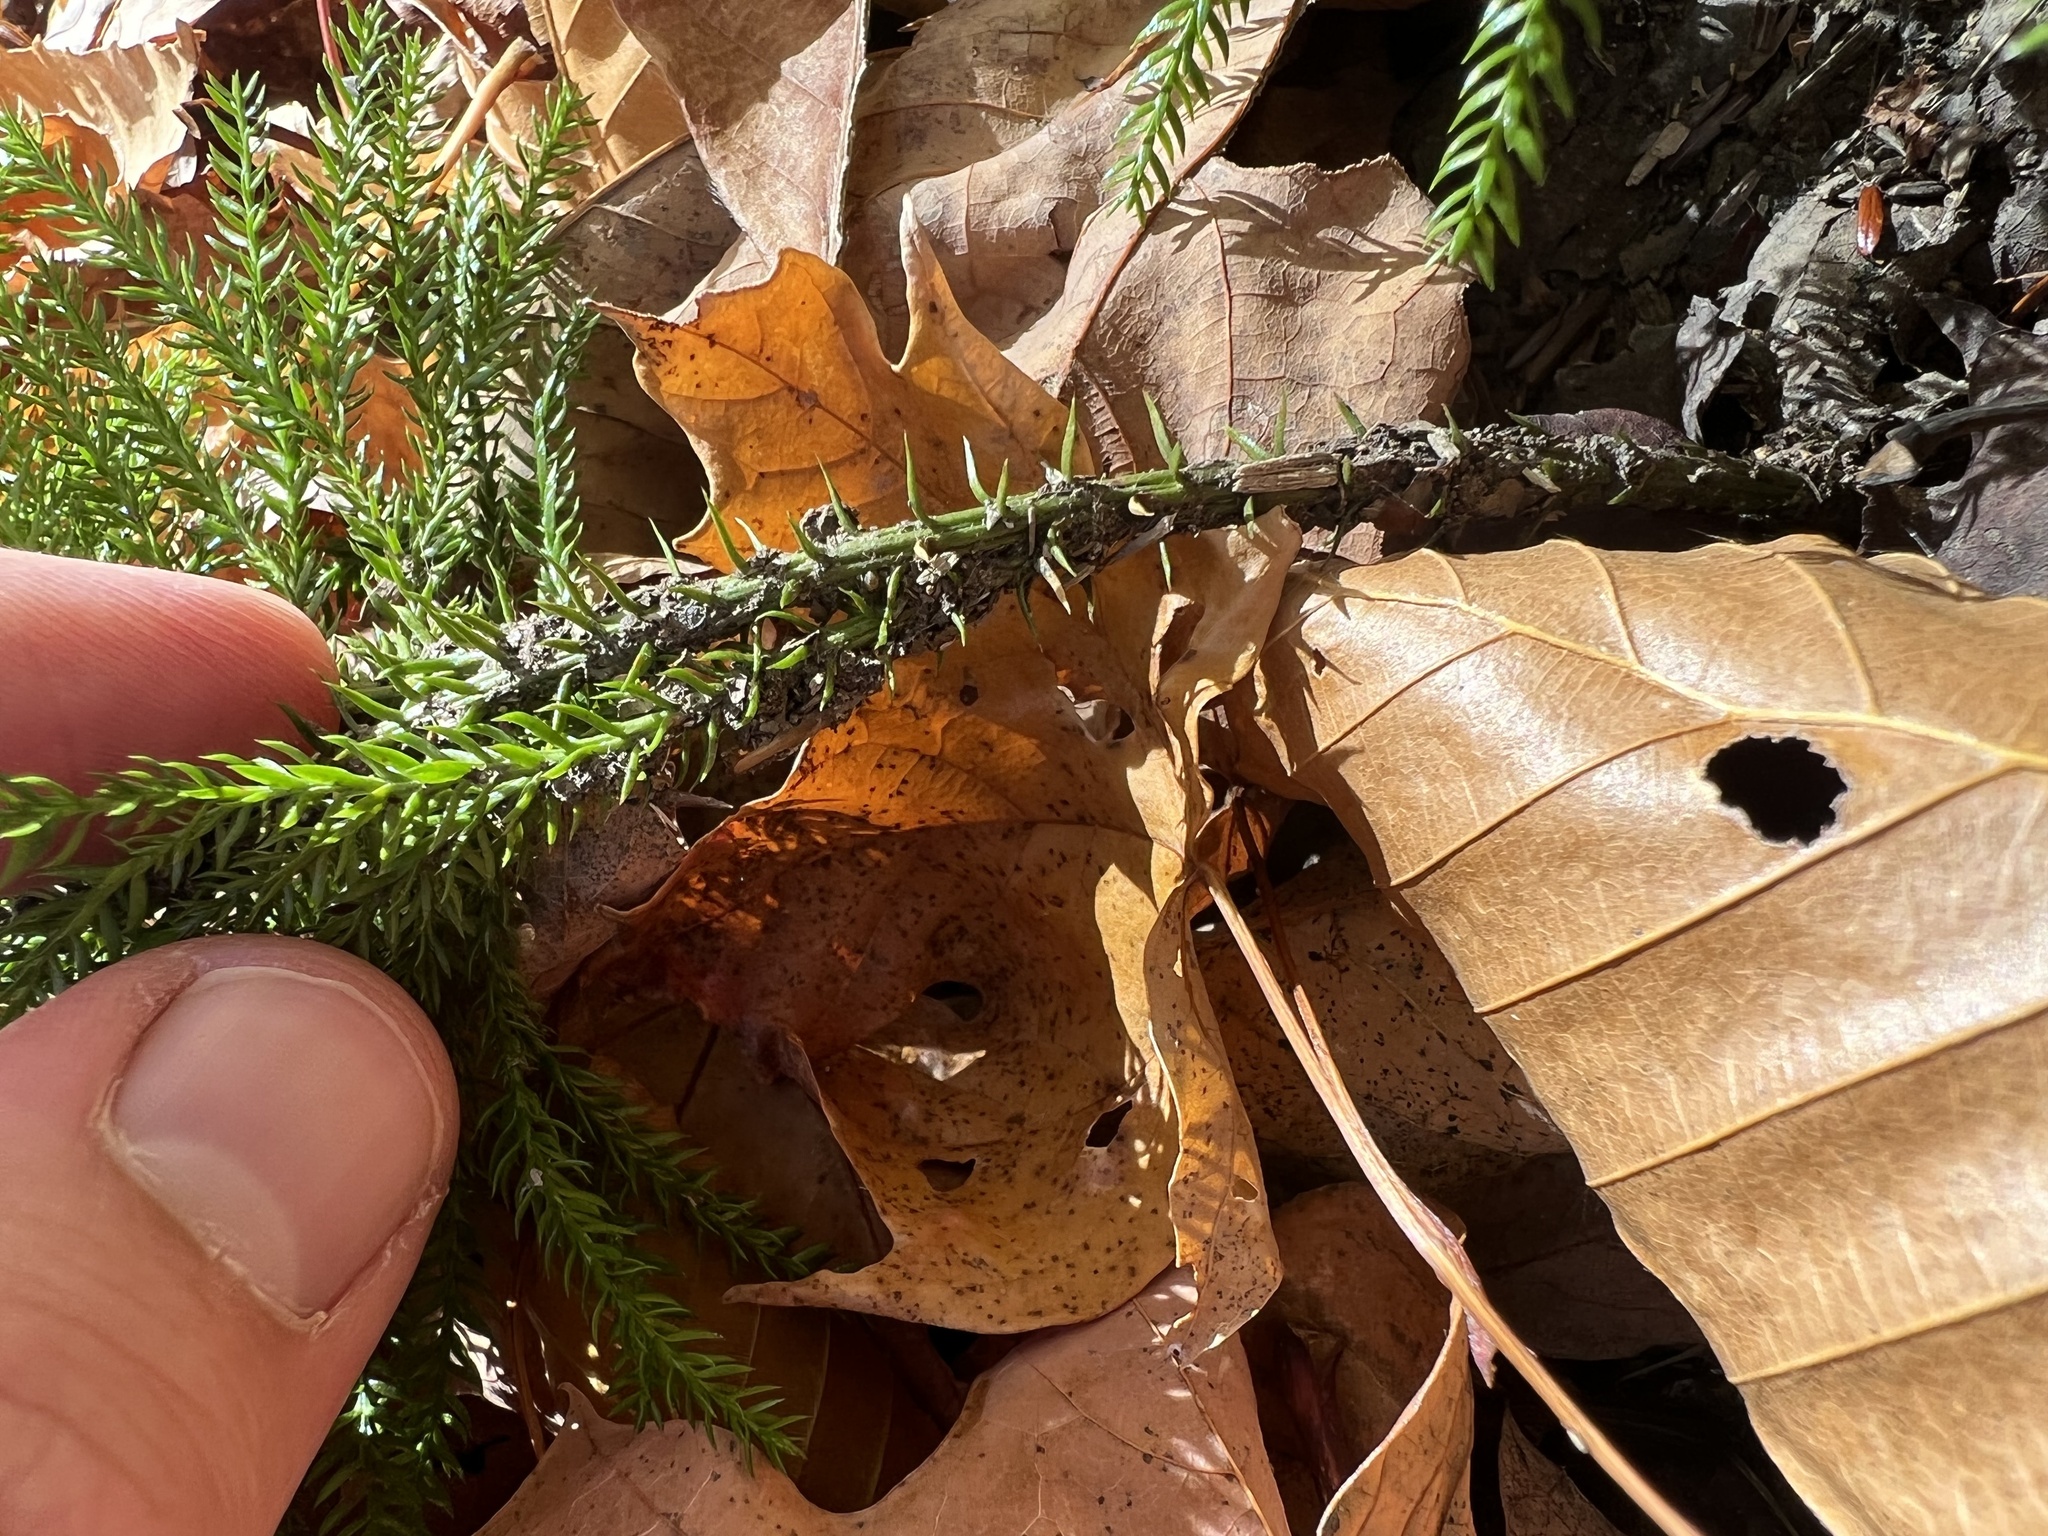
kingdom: Plantae
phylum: Tracheophyta
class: Lycopodiopsida
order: Lycopodiales
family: Lycopodiaceae
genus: Dendrolycopodium
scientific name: Dendrolycopodium dendroideum
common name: Northern tree-clubmoss
